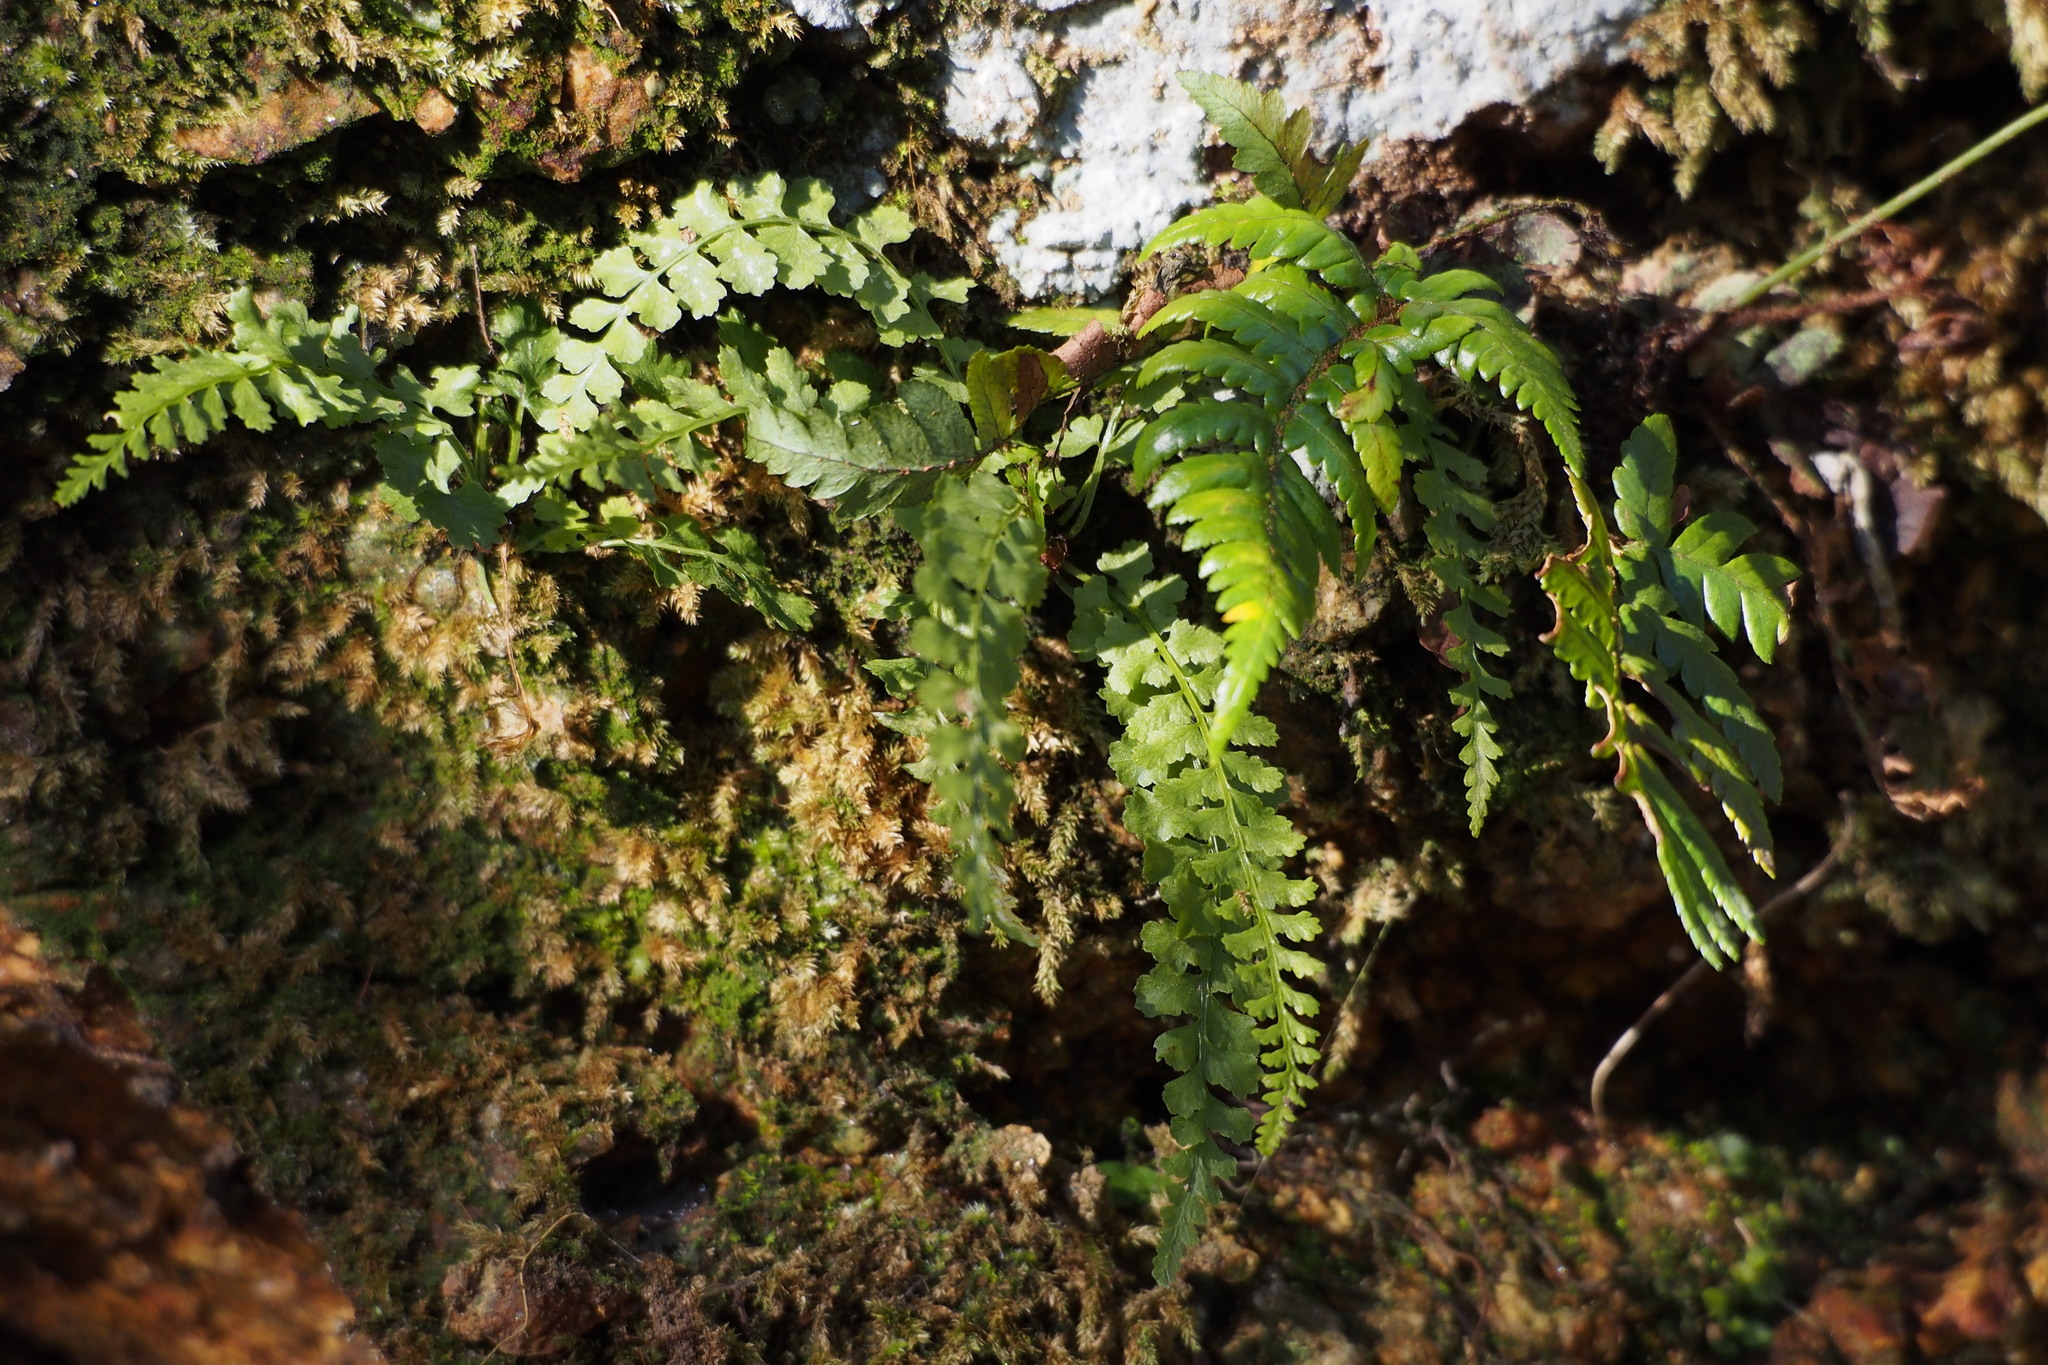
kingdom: Plantae
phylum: Tracheophyta
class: Polypodiopsida
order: Polypodiales
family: Aspleniaceae
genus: Asplenium
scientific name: Asplenium incisum
